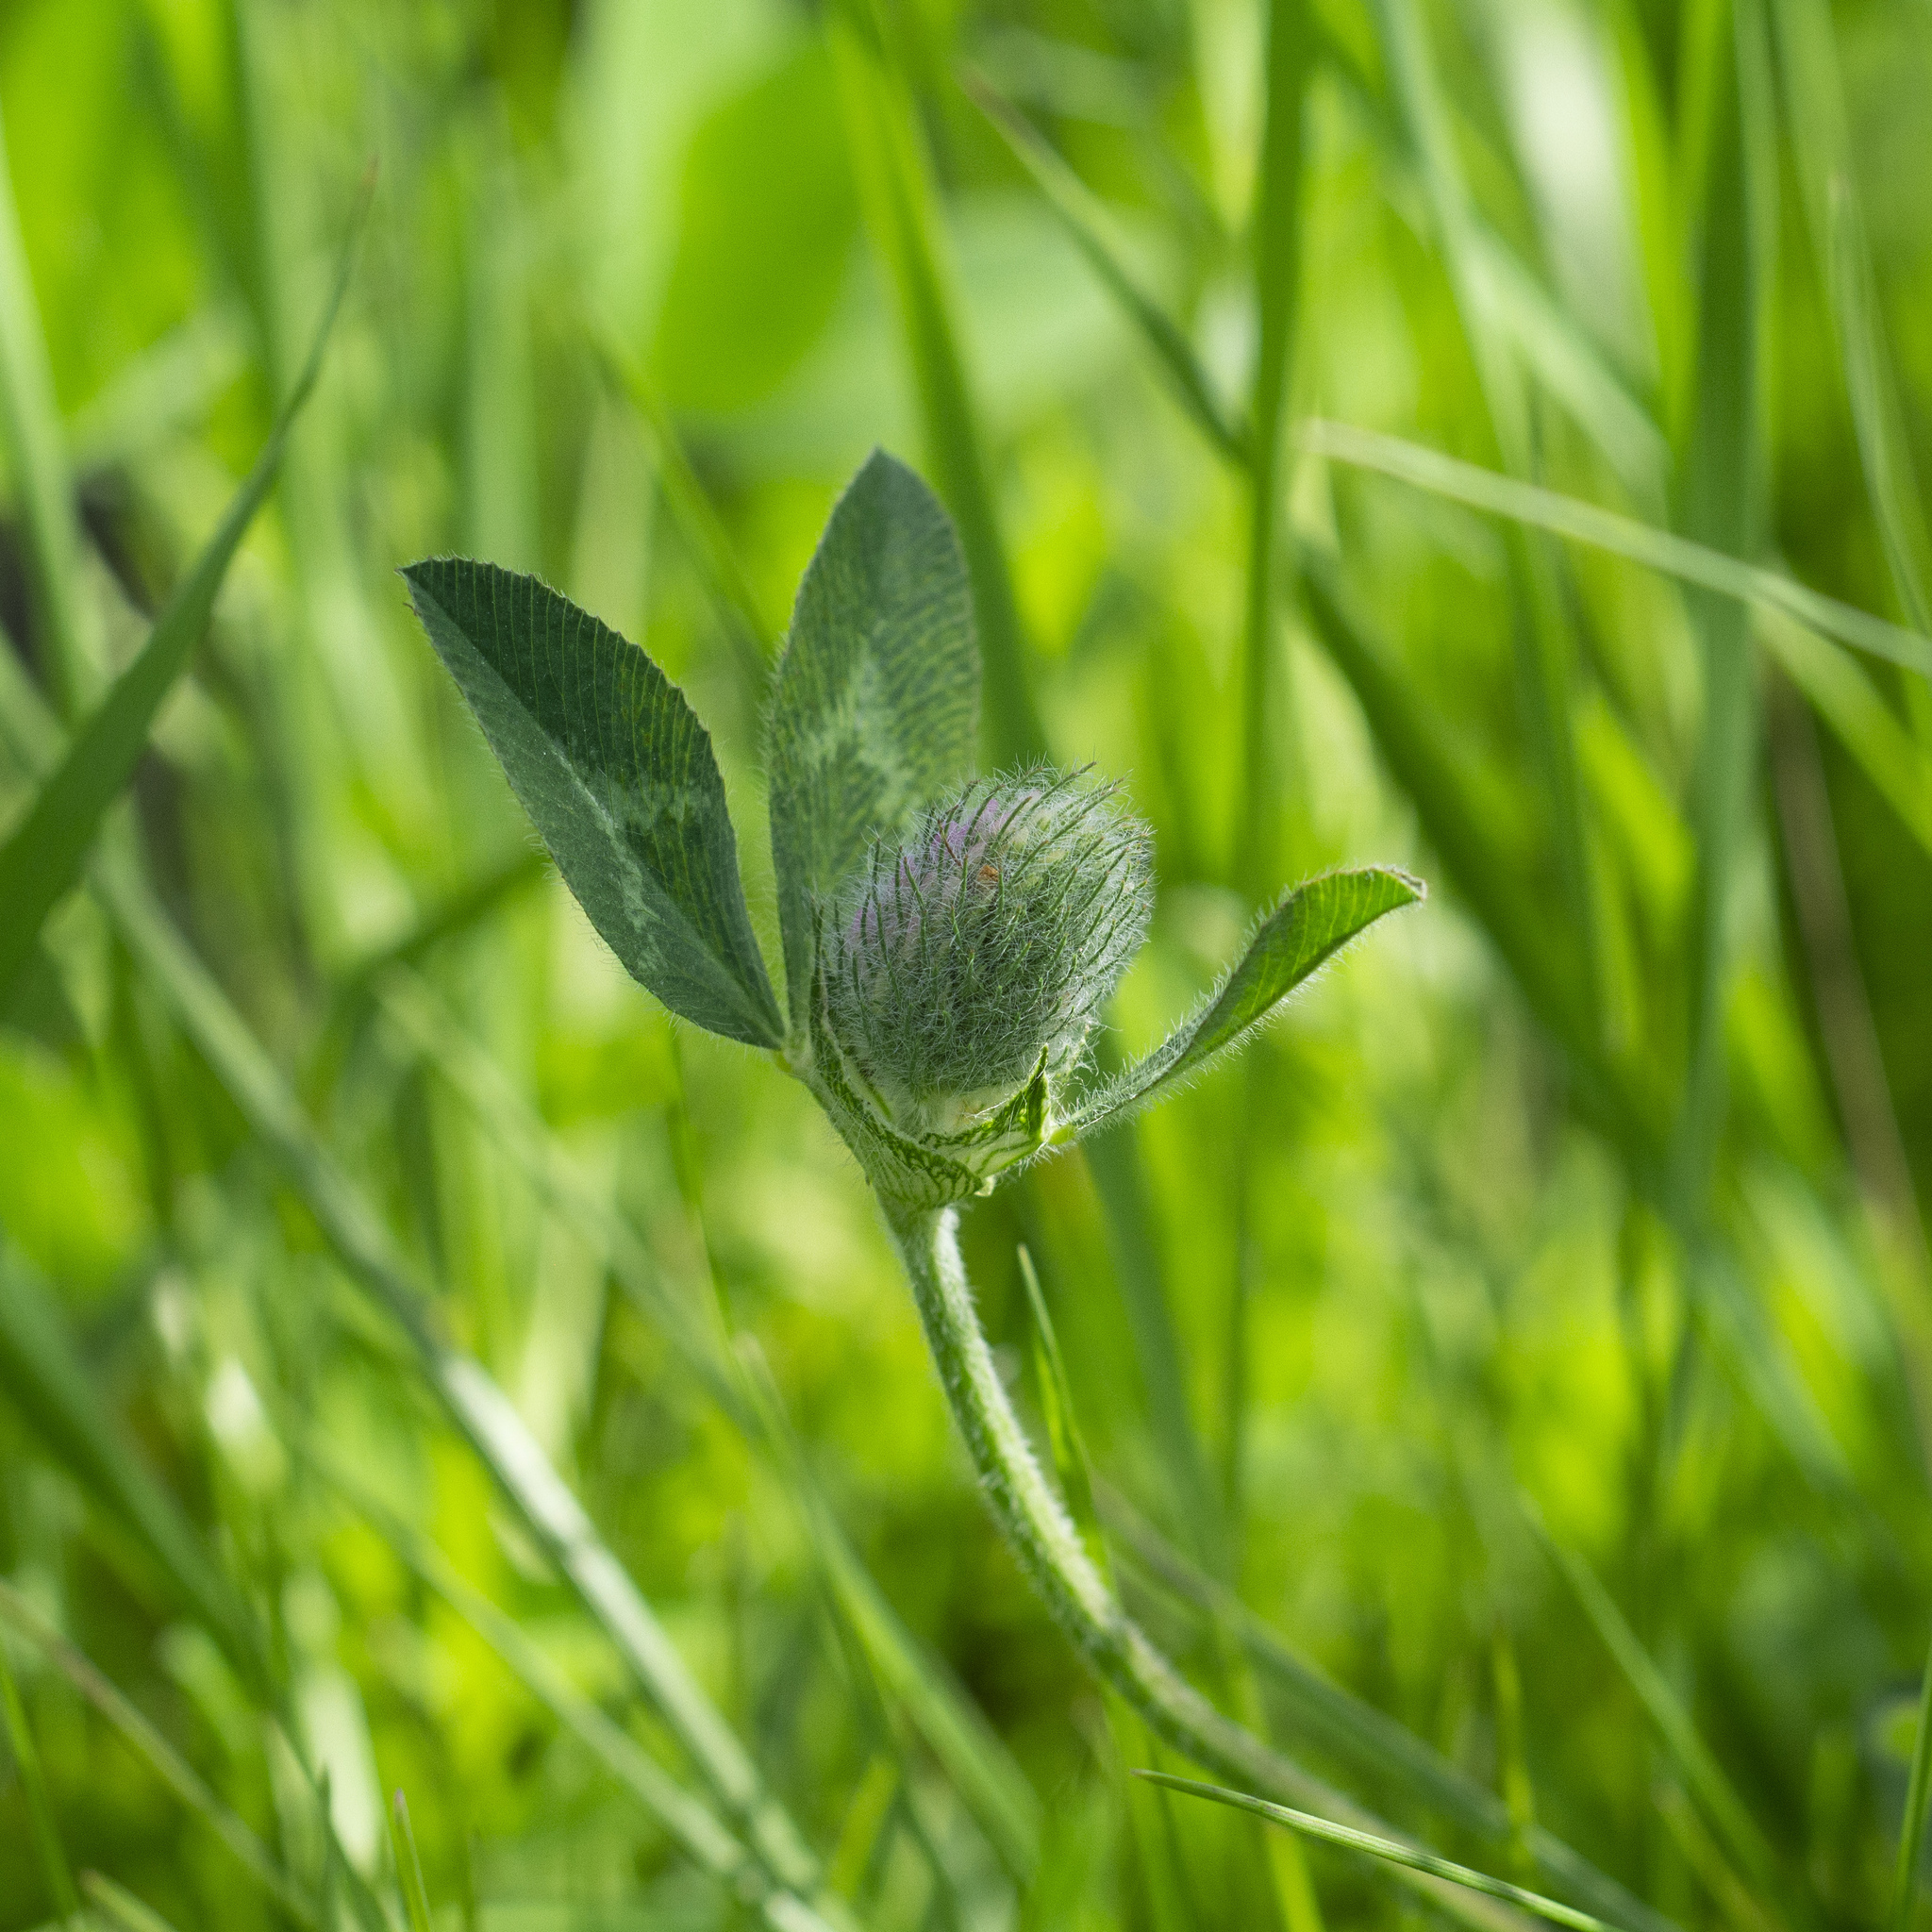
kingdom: Plantae
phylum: Tracheophyta
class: Magnoliopsida
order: Fabales
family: Fabaceae
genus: Trifolium
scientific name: Trifolium pratense
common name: Red clover
